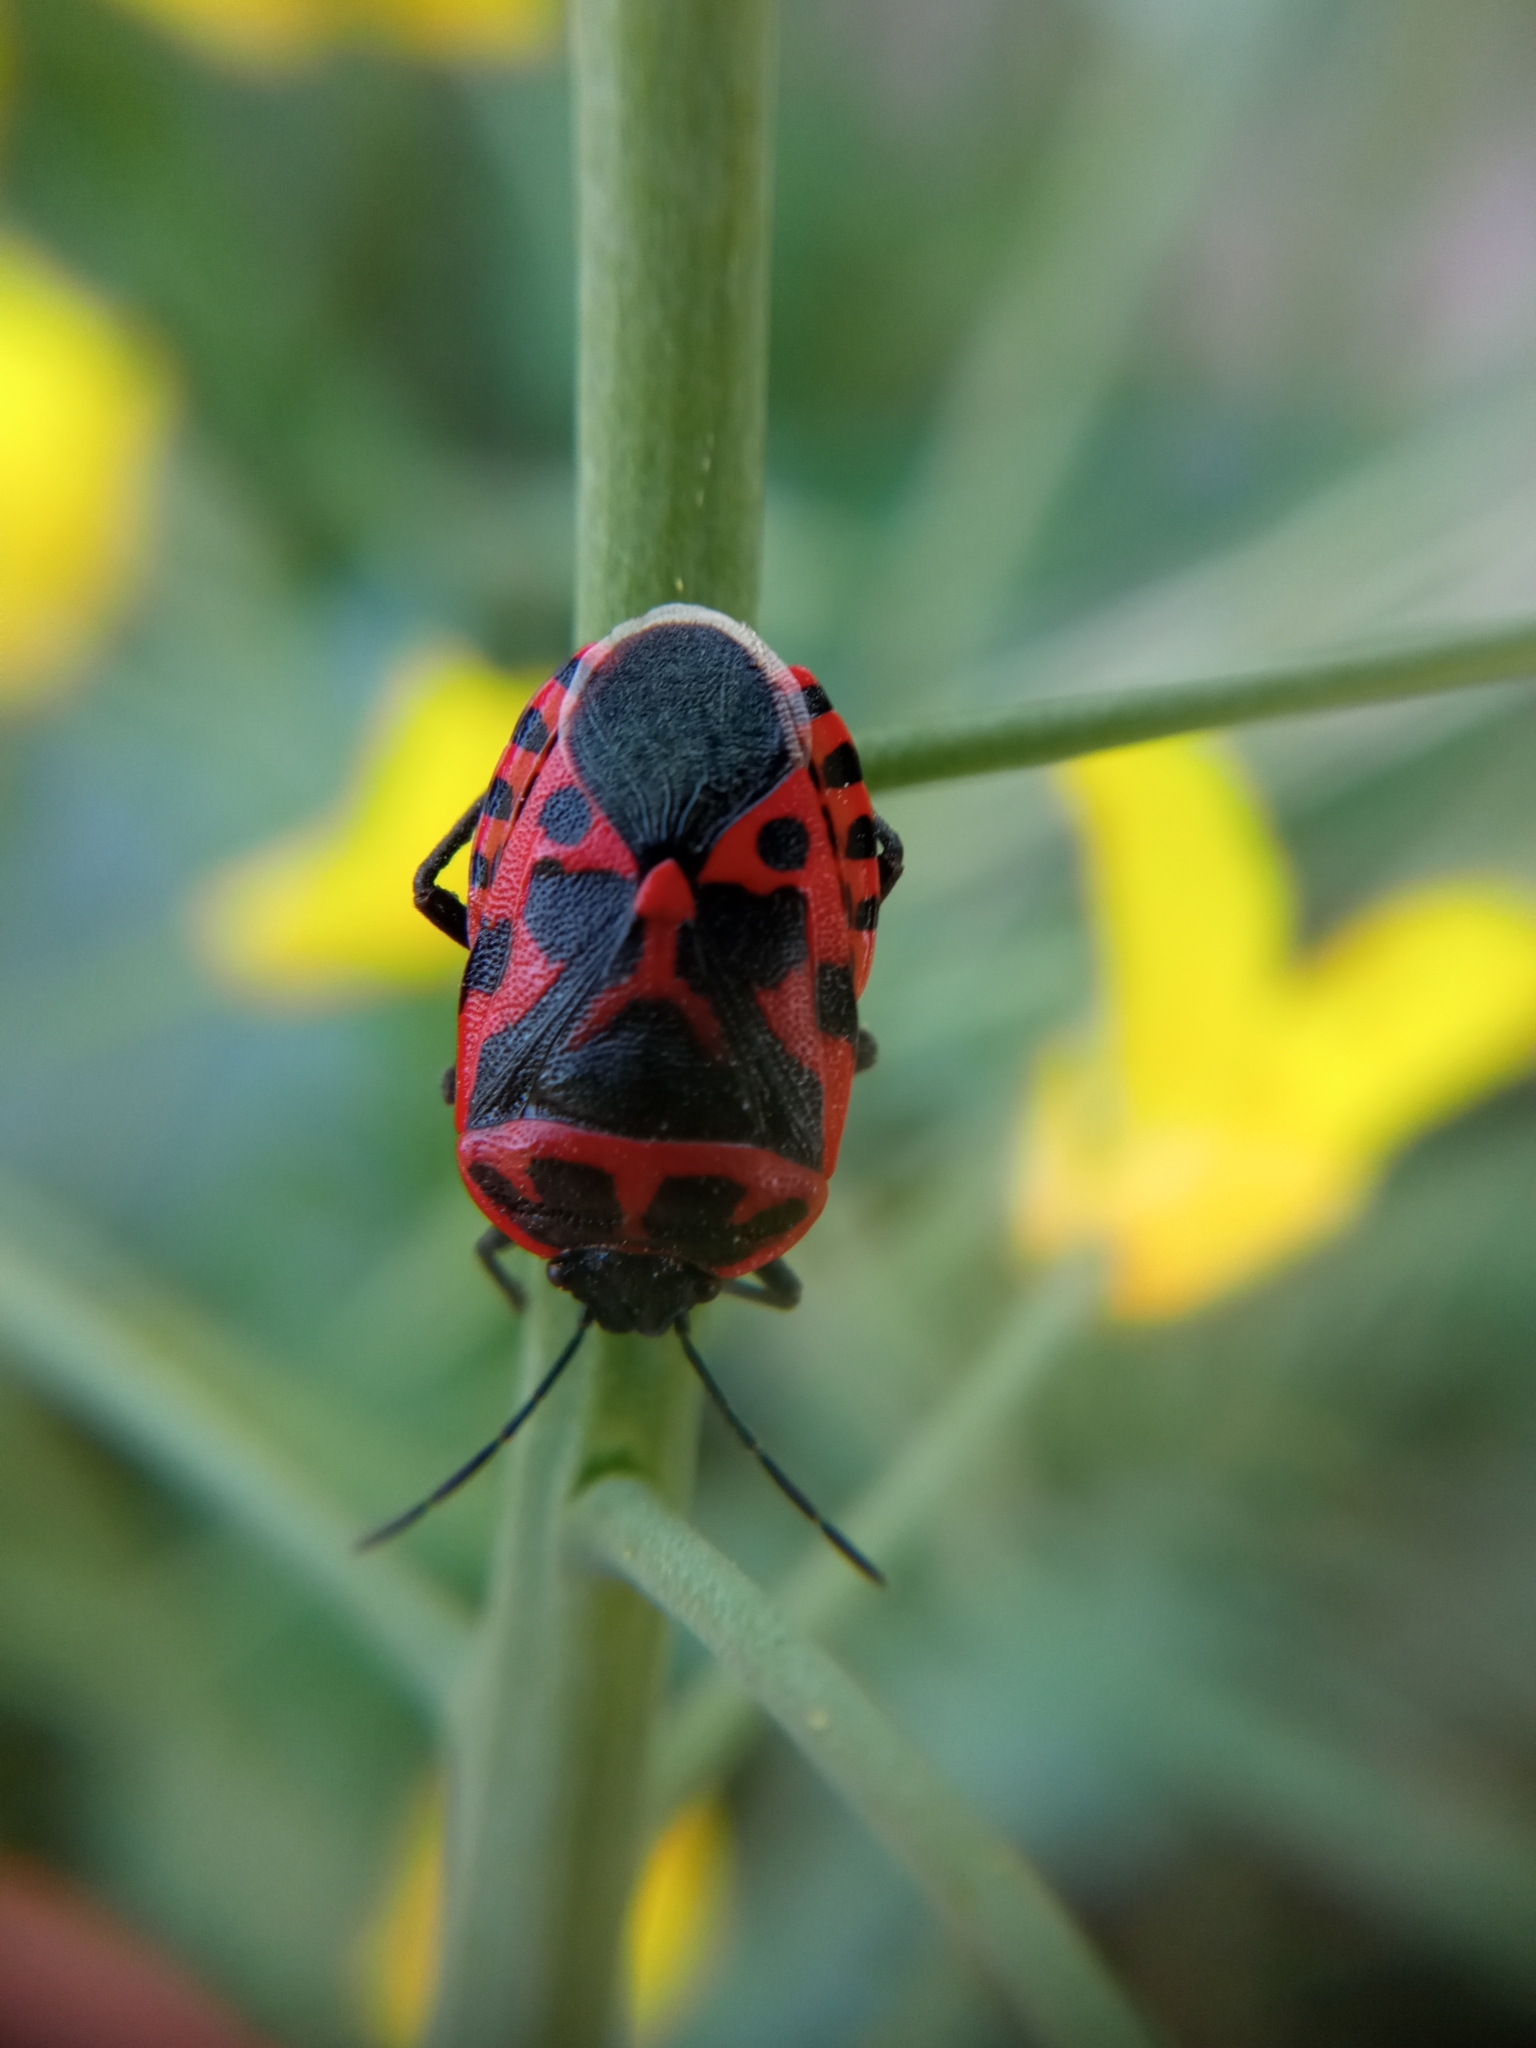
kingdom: Animalia
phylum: Arthropoda
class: Insecta
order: Hemiptera
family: Pentatomidae
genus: Eurydema
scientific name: Eurydema ventralis
